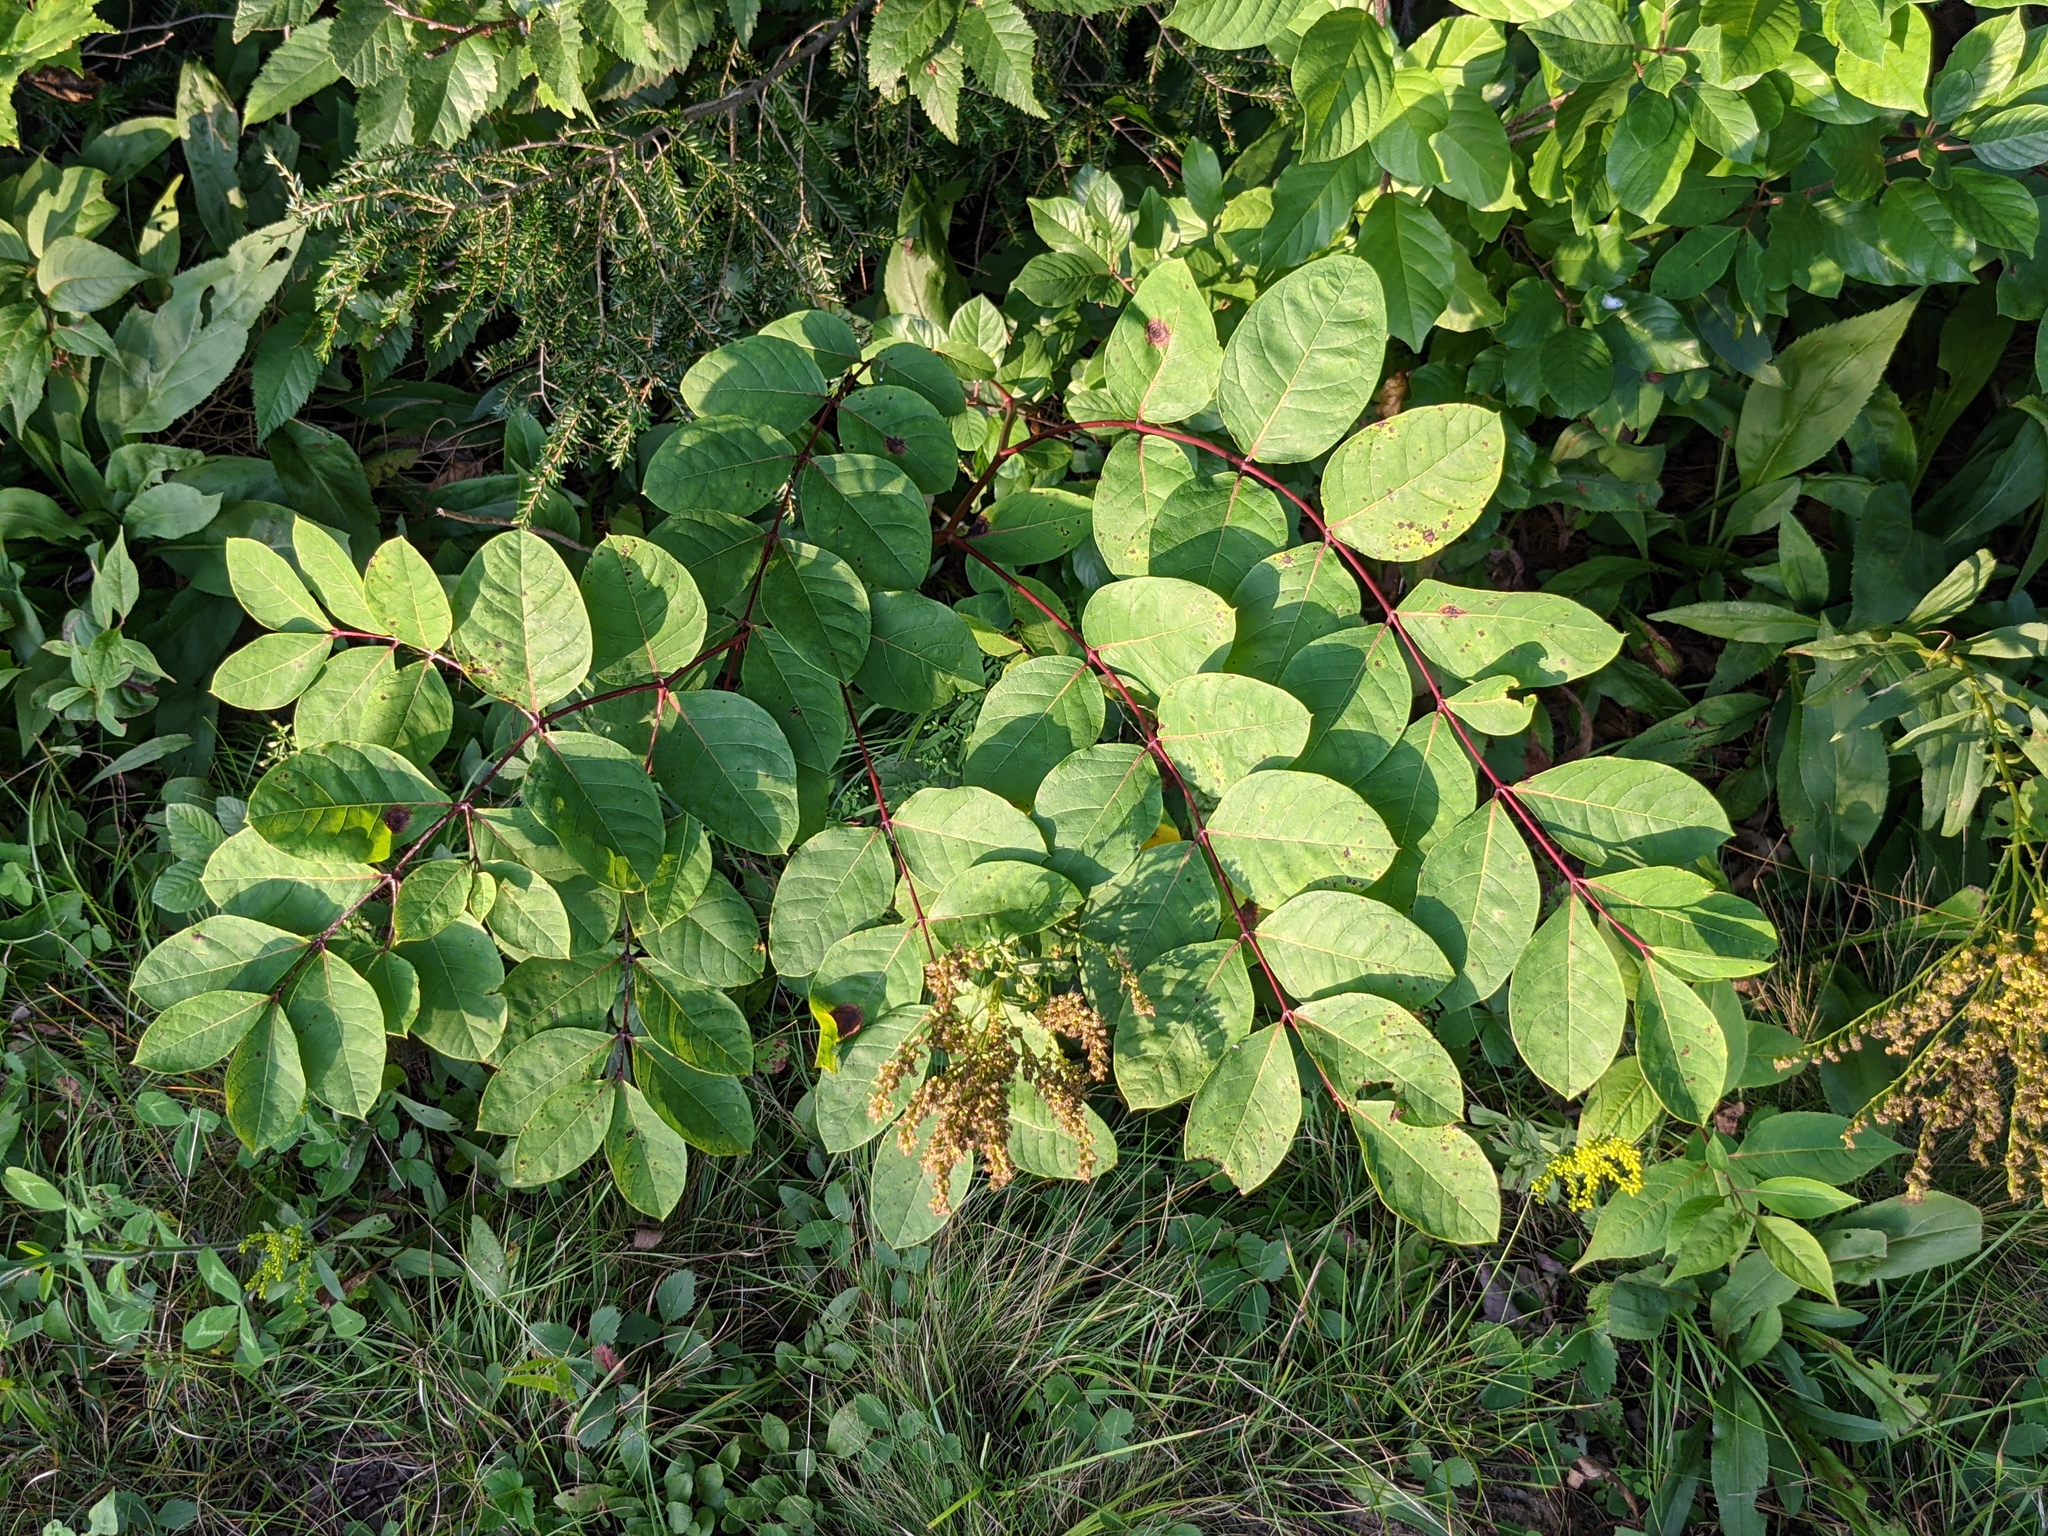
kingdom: Plantae
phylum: Tracheophyta
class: Magnoliopsida
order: Gentianales
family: Apocynaceae
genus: Apocynum
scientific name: Apocynum androsaemifolium
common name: Spreading dogbane
